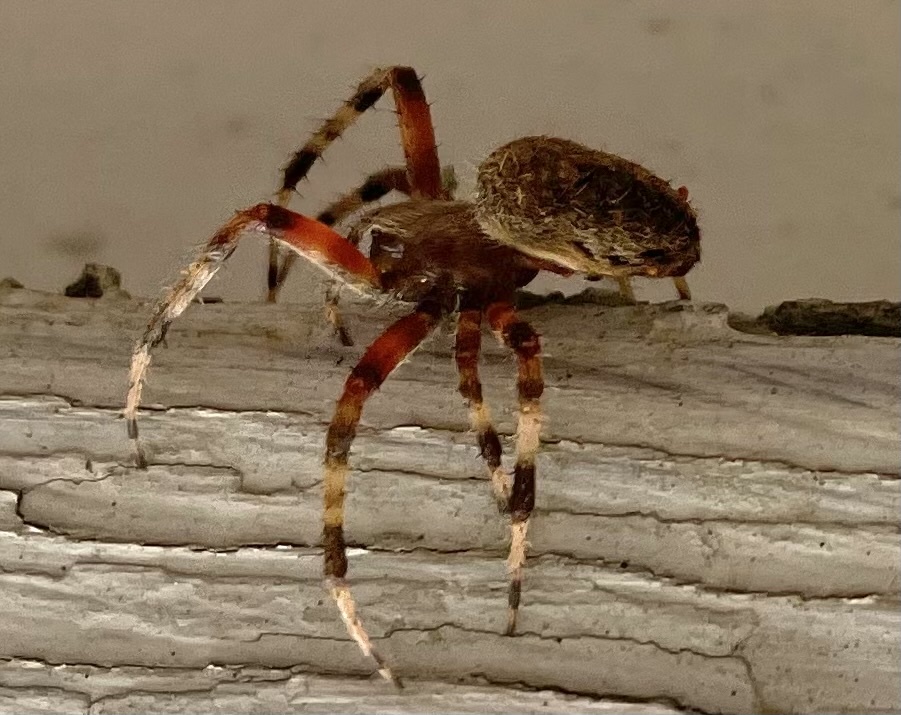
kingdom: Animalia
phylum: Arthropoda
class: Arachnida
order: Araneae
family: Araneidae
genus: Neoscona
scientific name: Neoscona crucifera
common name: Spotted orbweaver
